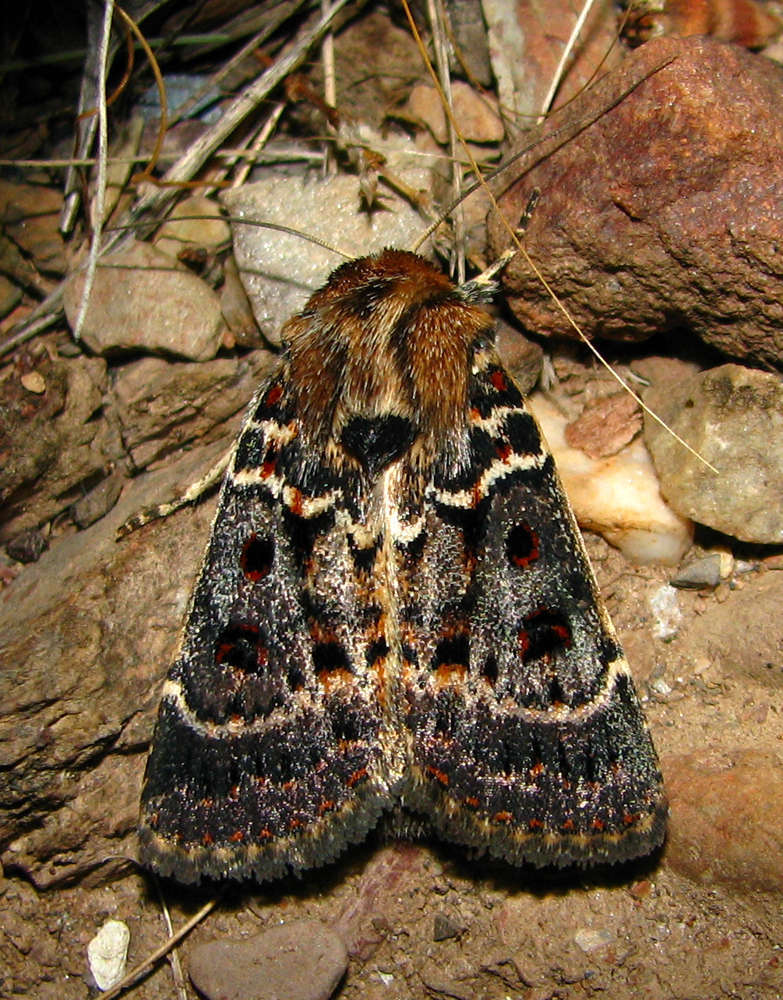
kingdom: Animalia
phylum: Arthropoda
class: Insecta
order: Lepidoptera
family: Noctuidae
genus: Proteuxoa
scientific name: Proteuxoa sanguinipuncta
